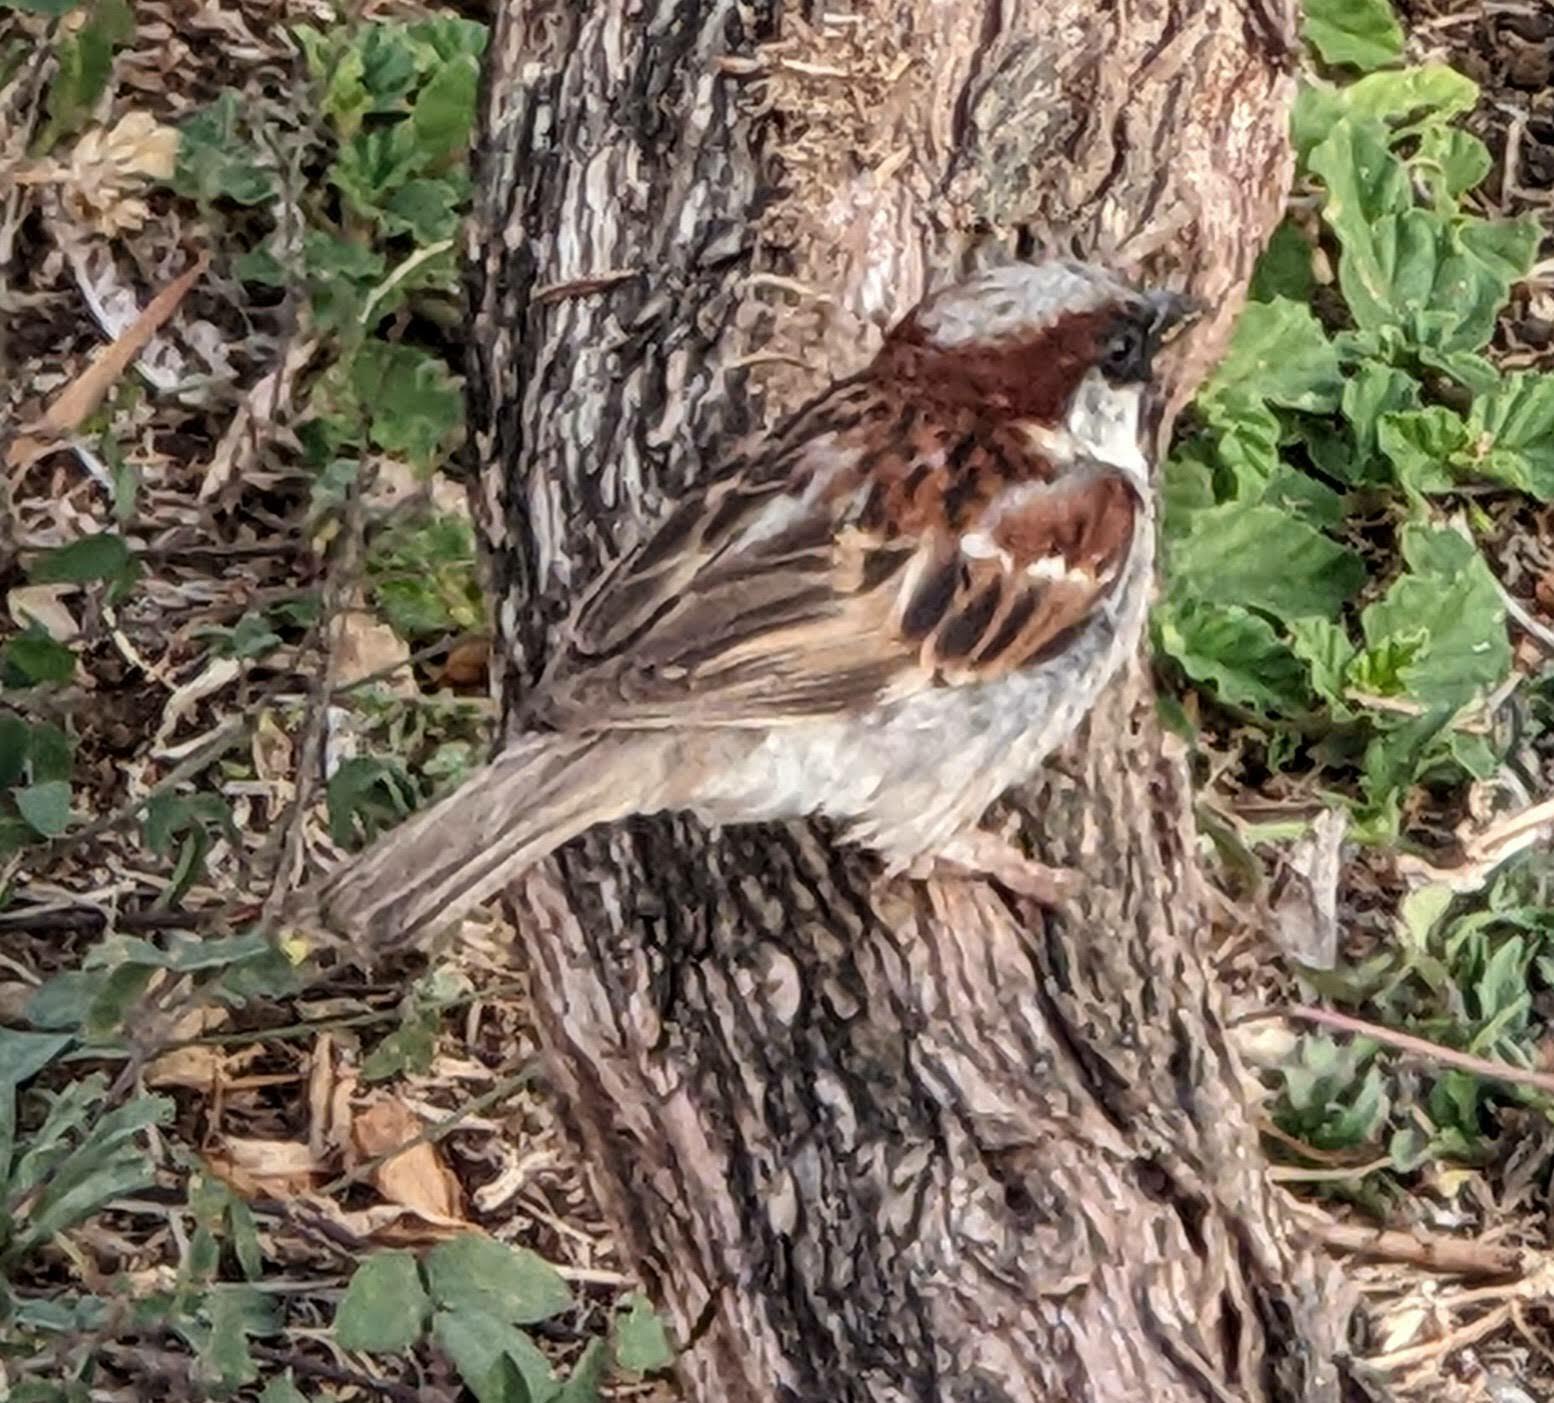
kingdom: Animalia
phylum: Chordata
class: Aves
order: Passeriformes
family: Passeridae
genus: Passer
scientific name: Passer domesticus
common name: House sparrow
